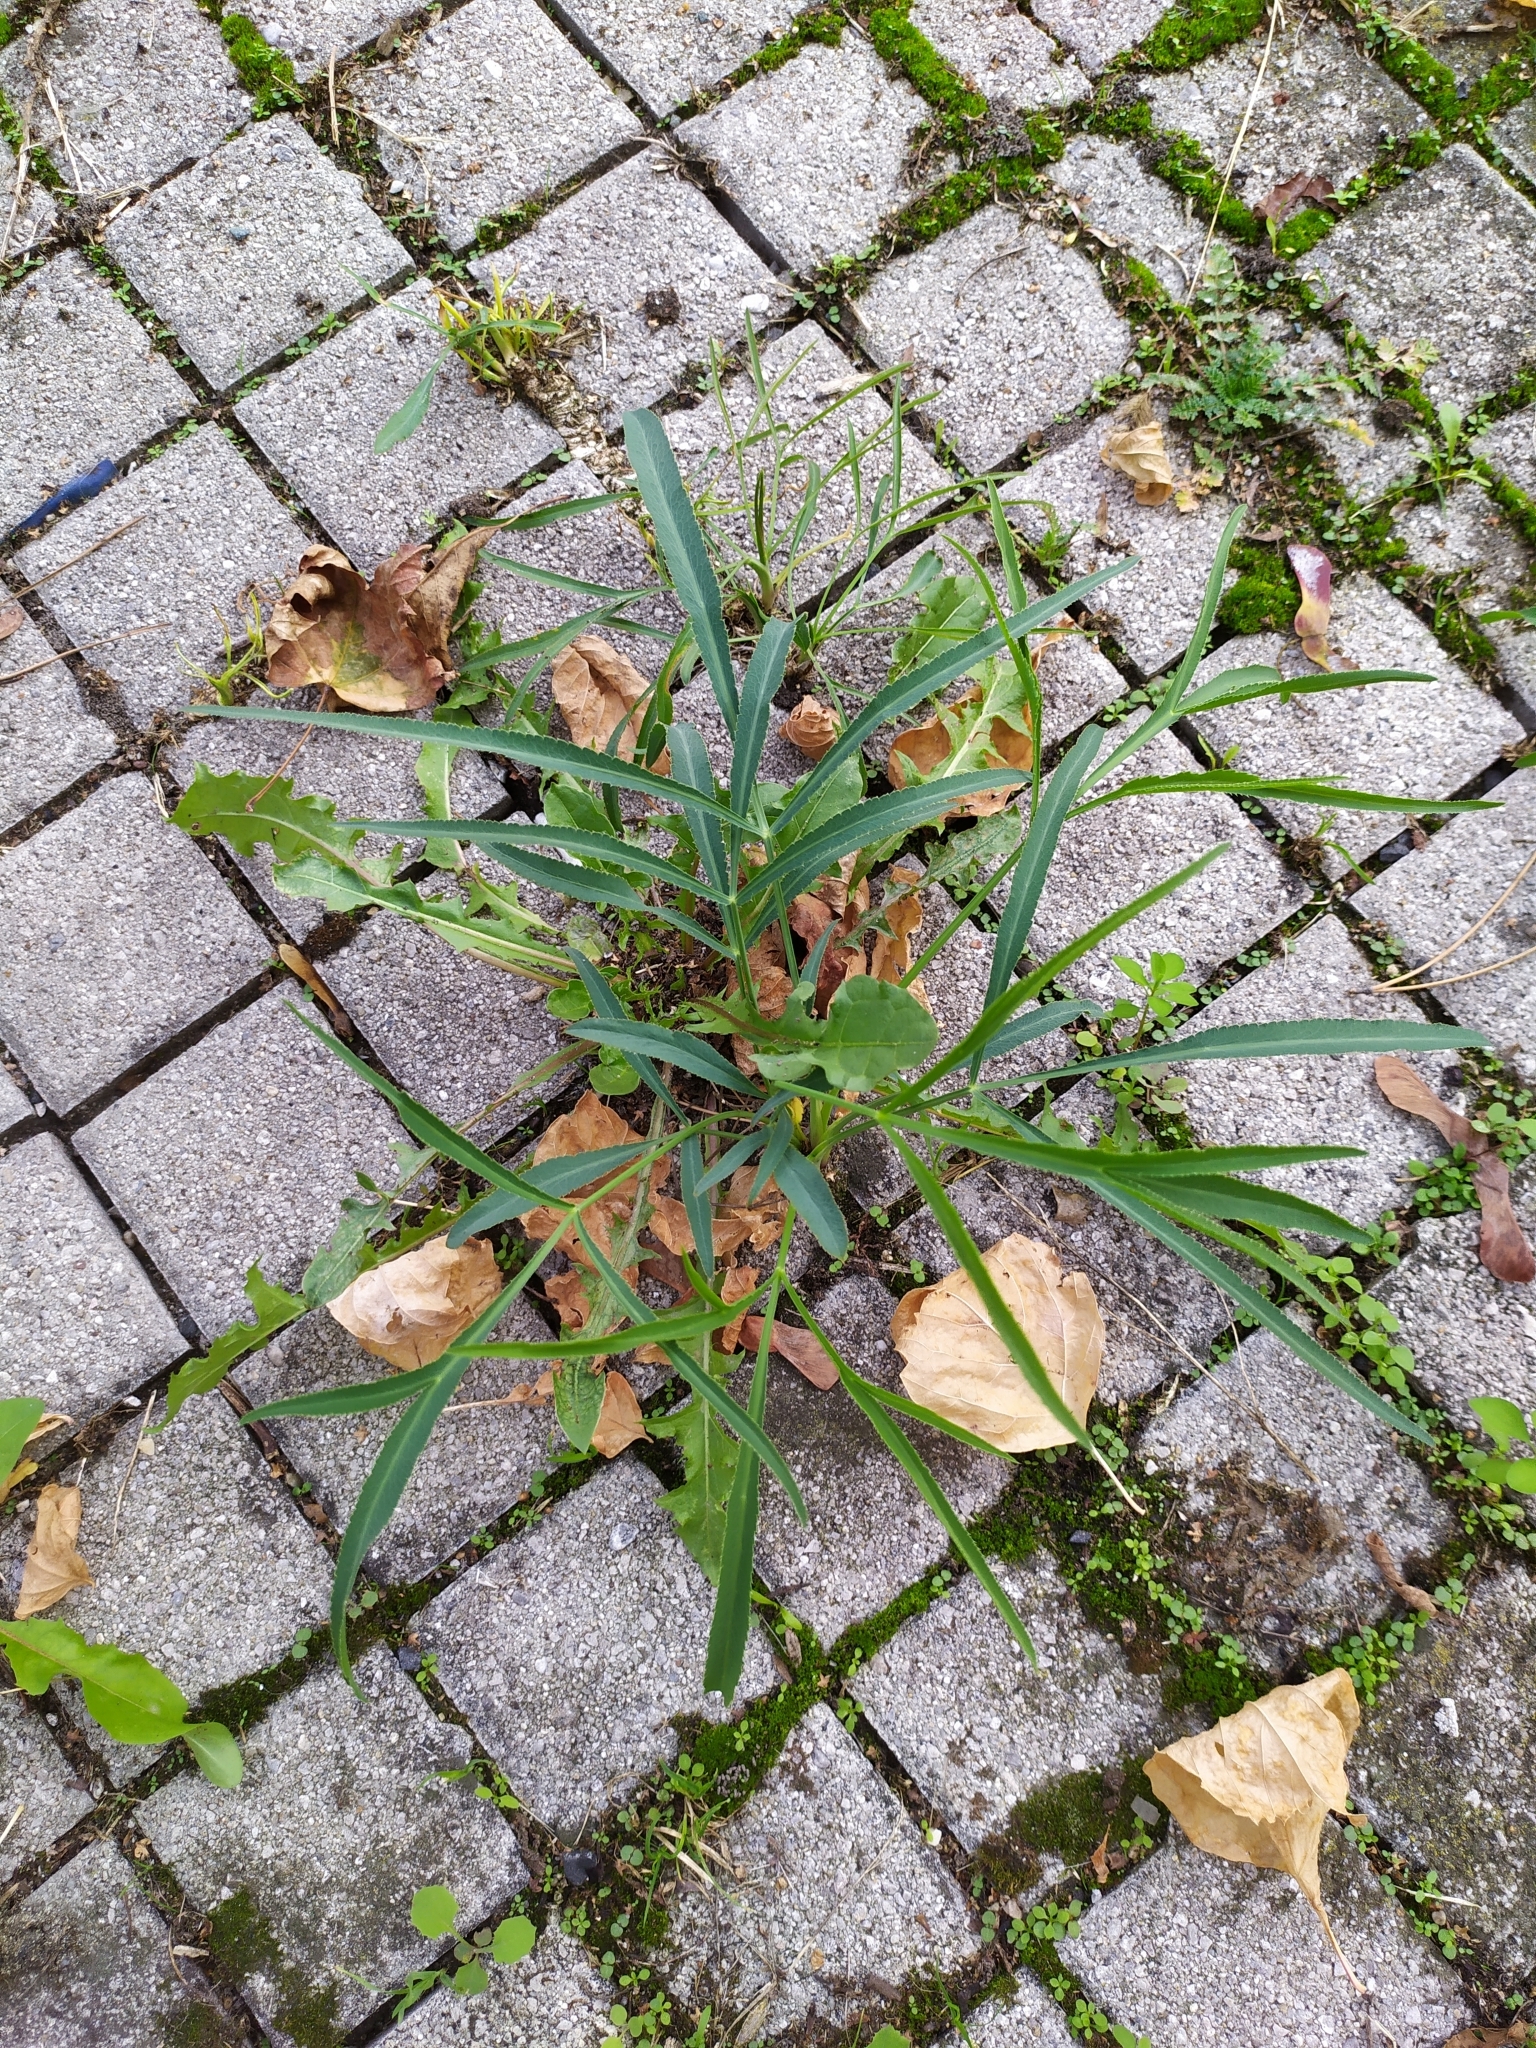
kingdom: Plantae
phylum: Tracheophyta
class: Magnoliopsida
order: Apiales
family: Apiaceae
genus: Falcaria
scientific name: Falcaria vulgaris
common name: Longleaf
